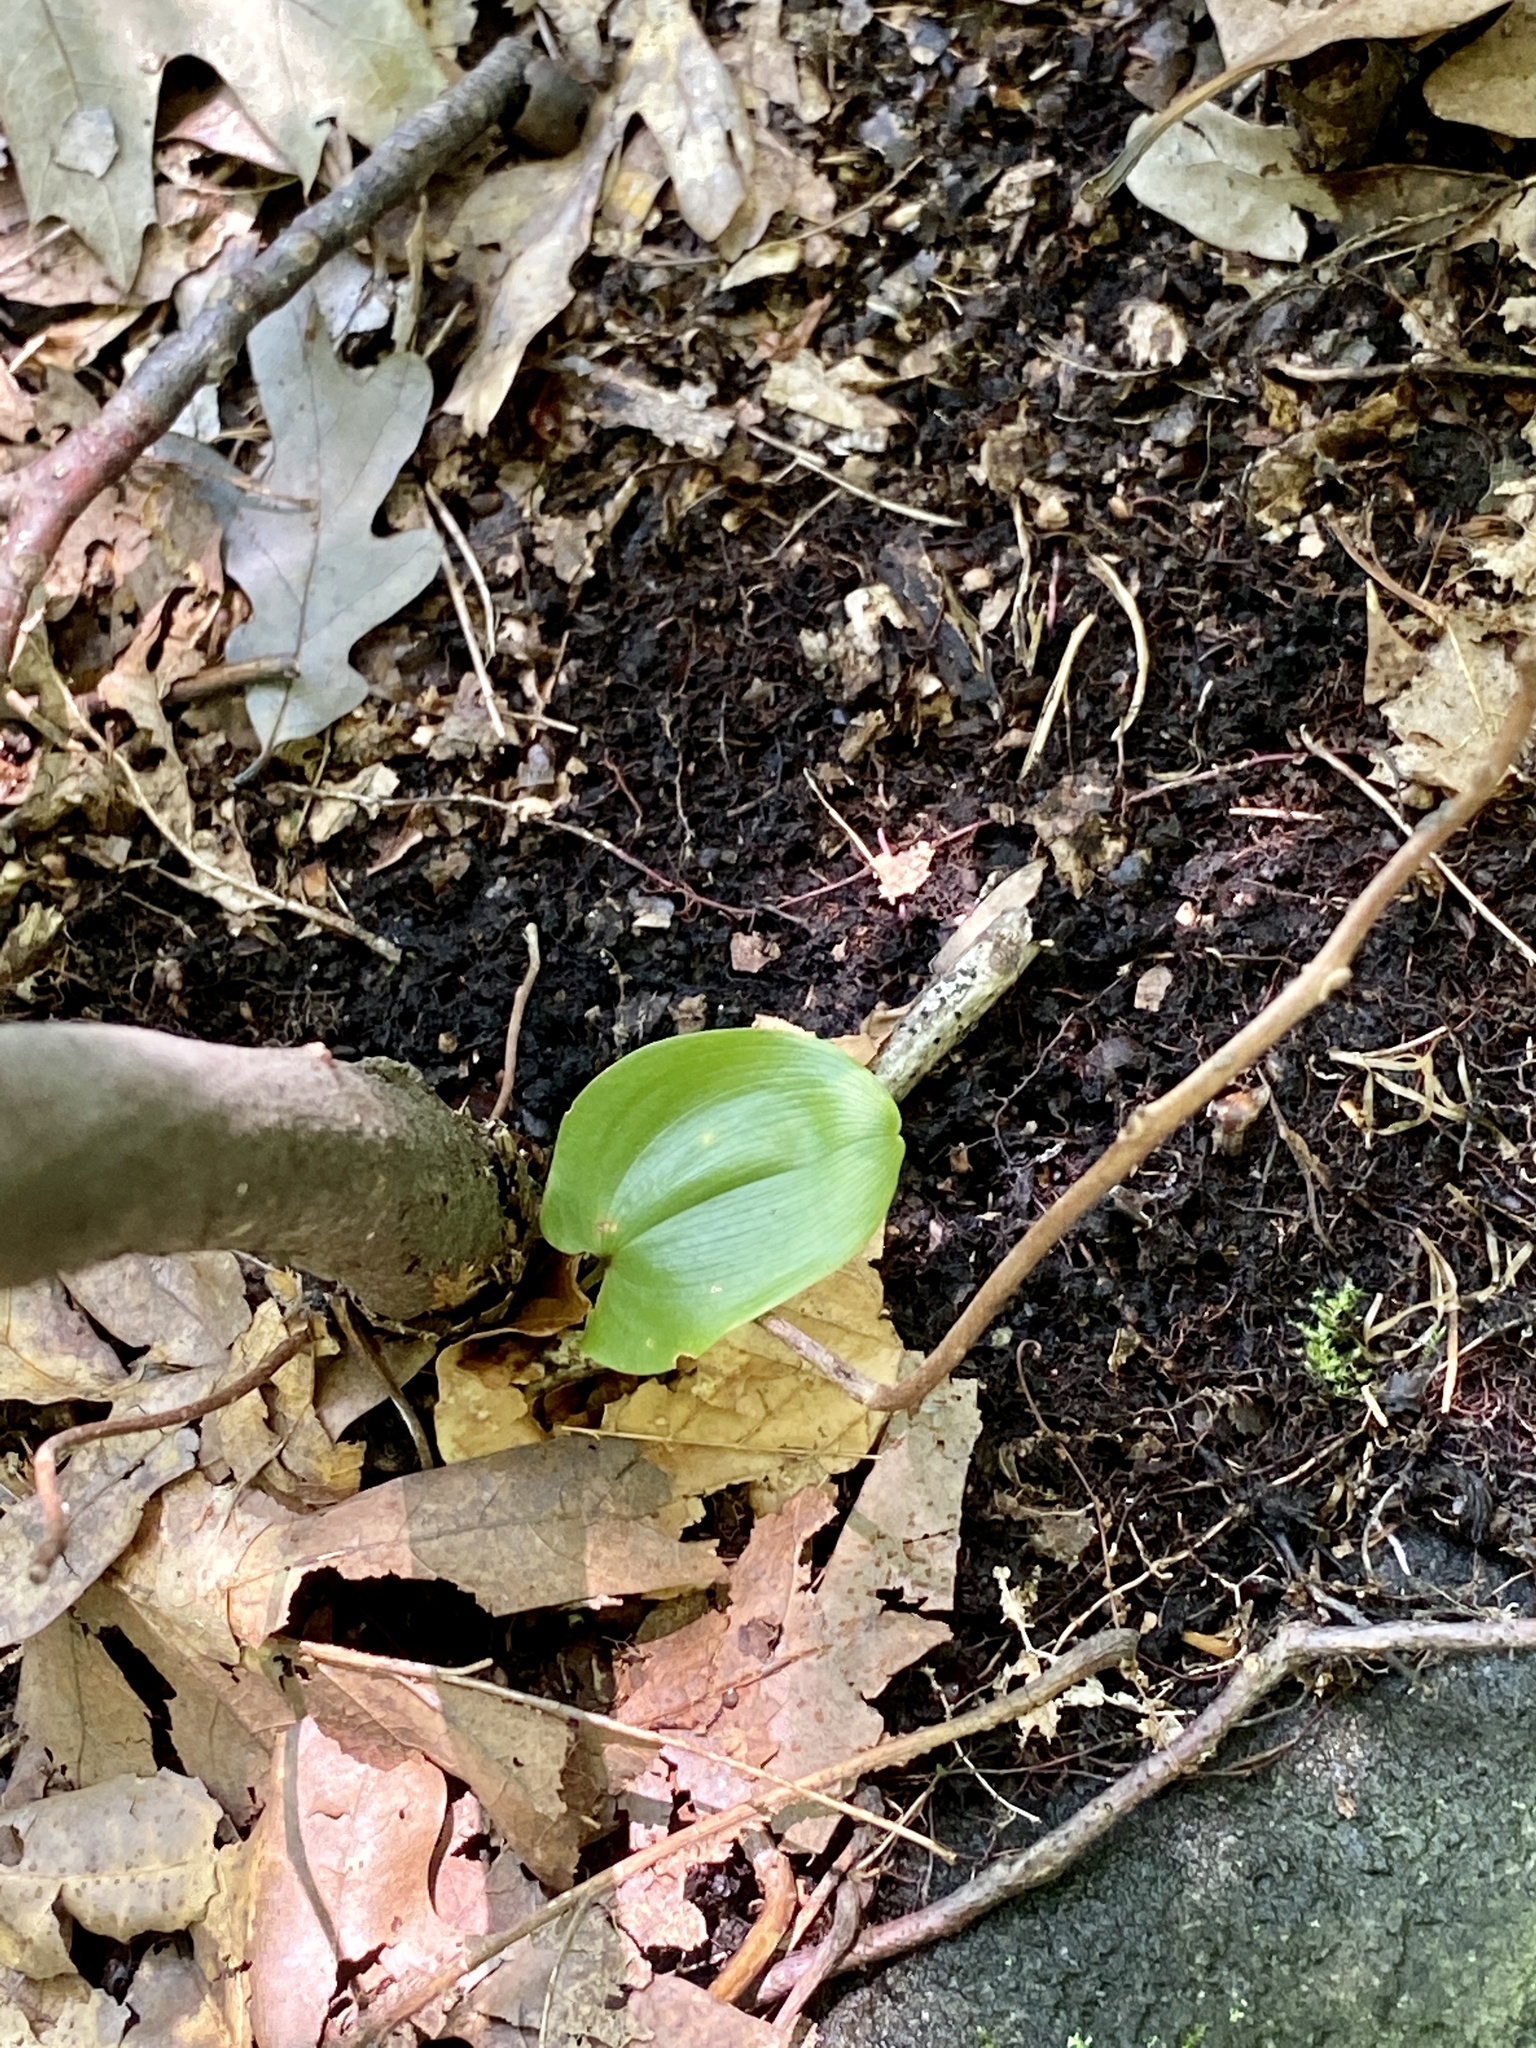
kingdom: Plantae
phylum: Tracheophyta
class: Liliopsida
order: Asparagales
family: Asparagaceae
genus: Maianthemum
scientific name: Maianthemum canadense
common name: False lily-of-the-valley
